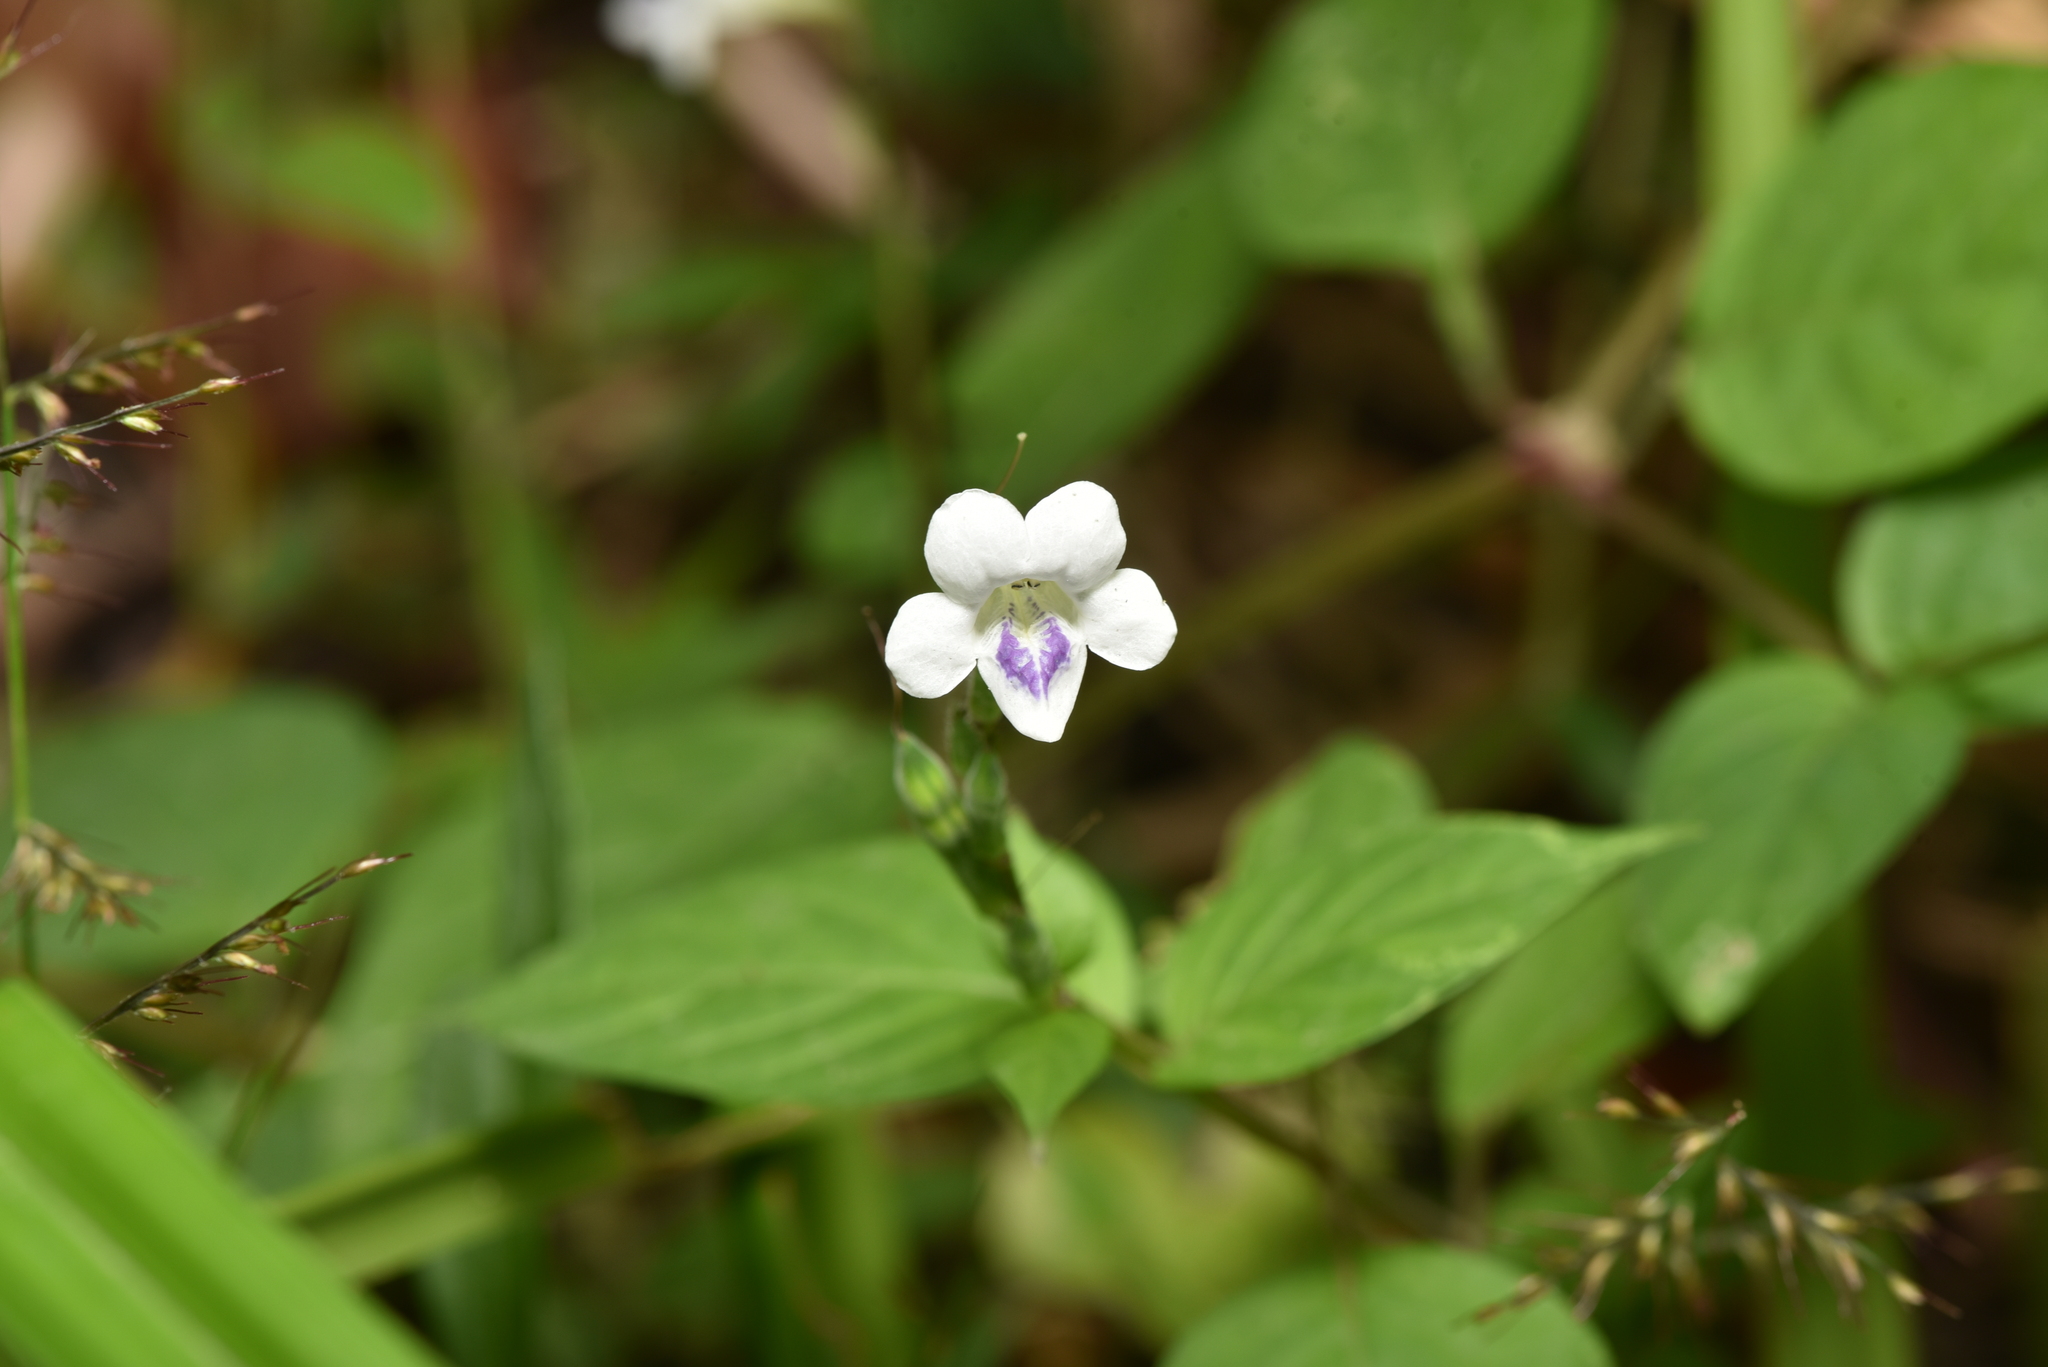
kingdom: Plantae
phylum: Tracheophyta
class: Magnoliopsida
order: Lamiales
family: Acanthaceae
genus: Asystasia
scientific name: Asystasia intrusa
